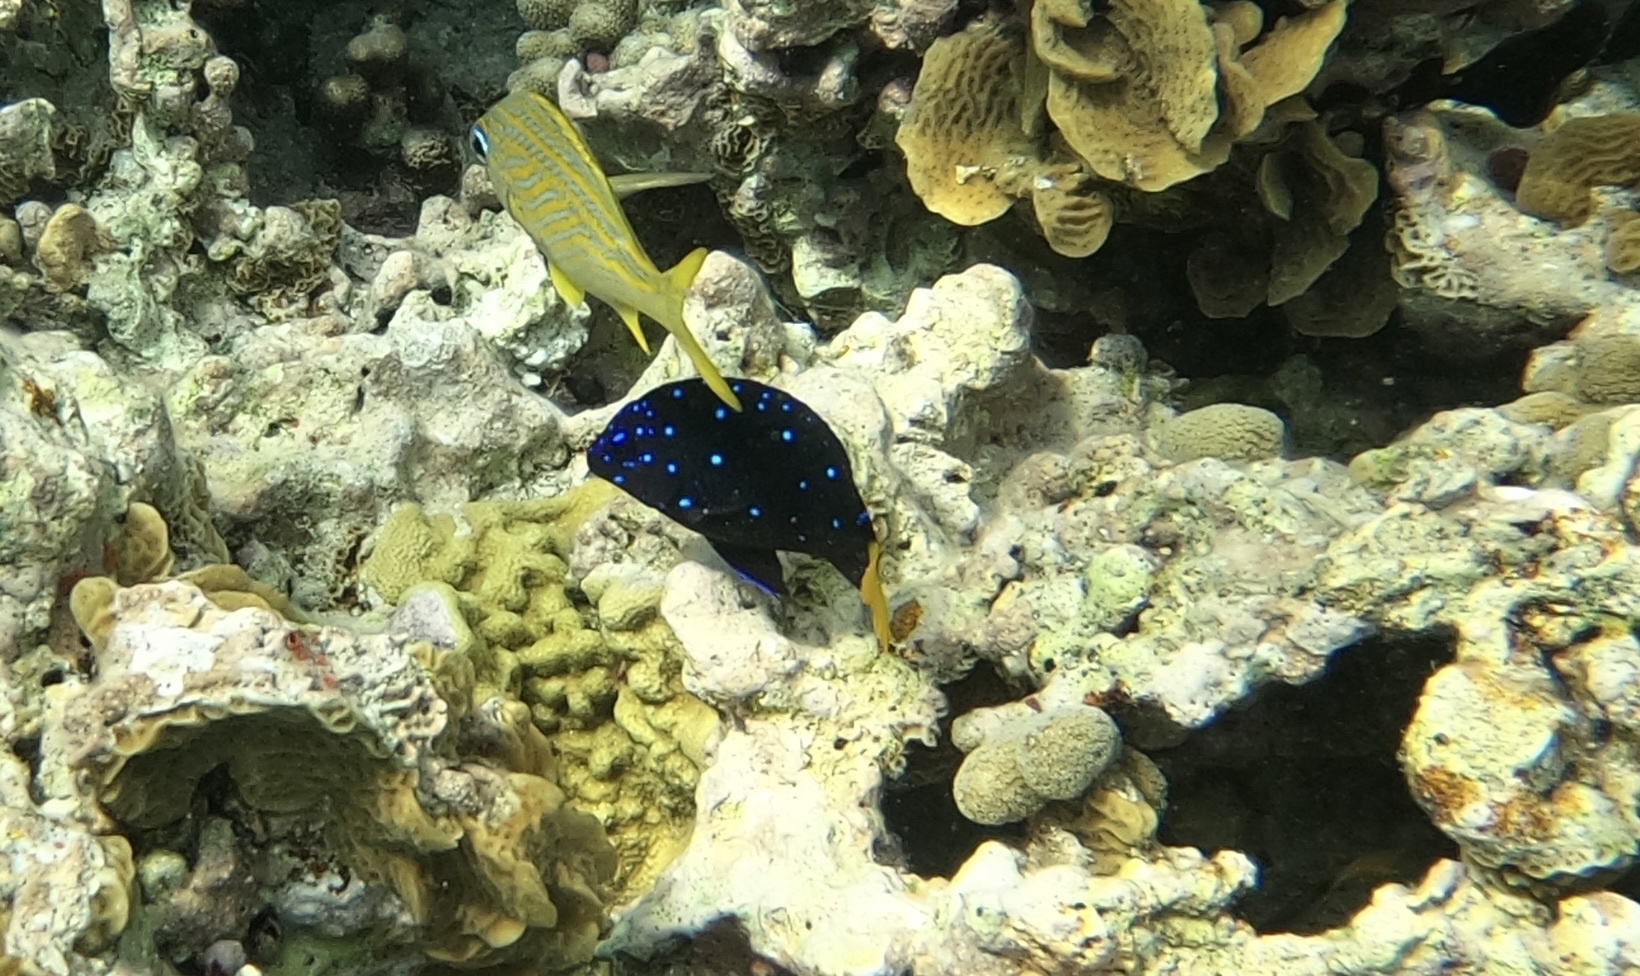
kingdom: Animalia
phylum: Chordata
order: Perciformes
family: Pomacentridae
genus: Microspathodon
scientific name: Microspathodon chrysurus
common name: Yellowtail damselfish
